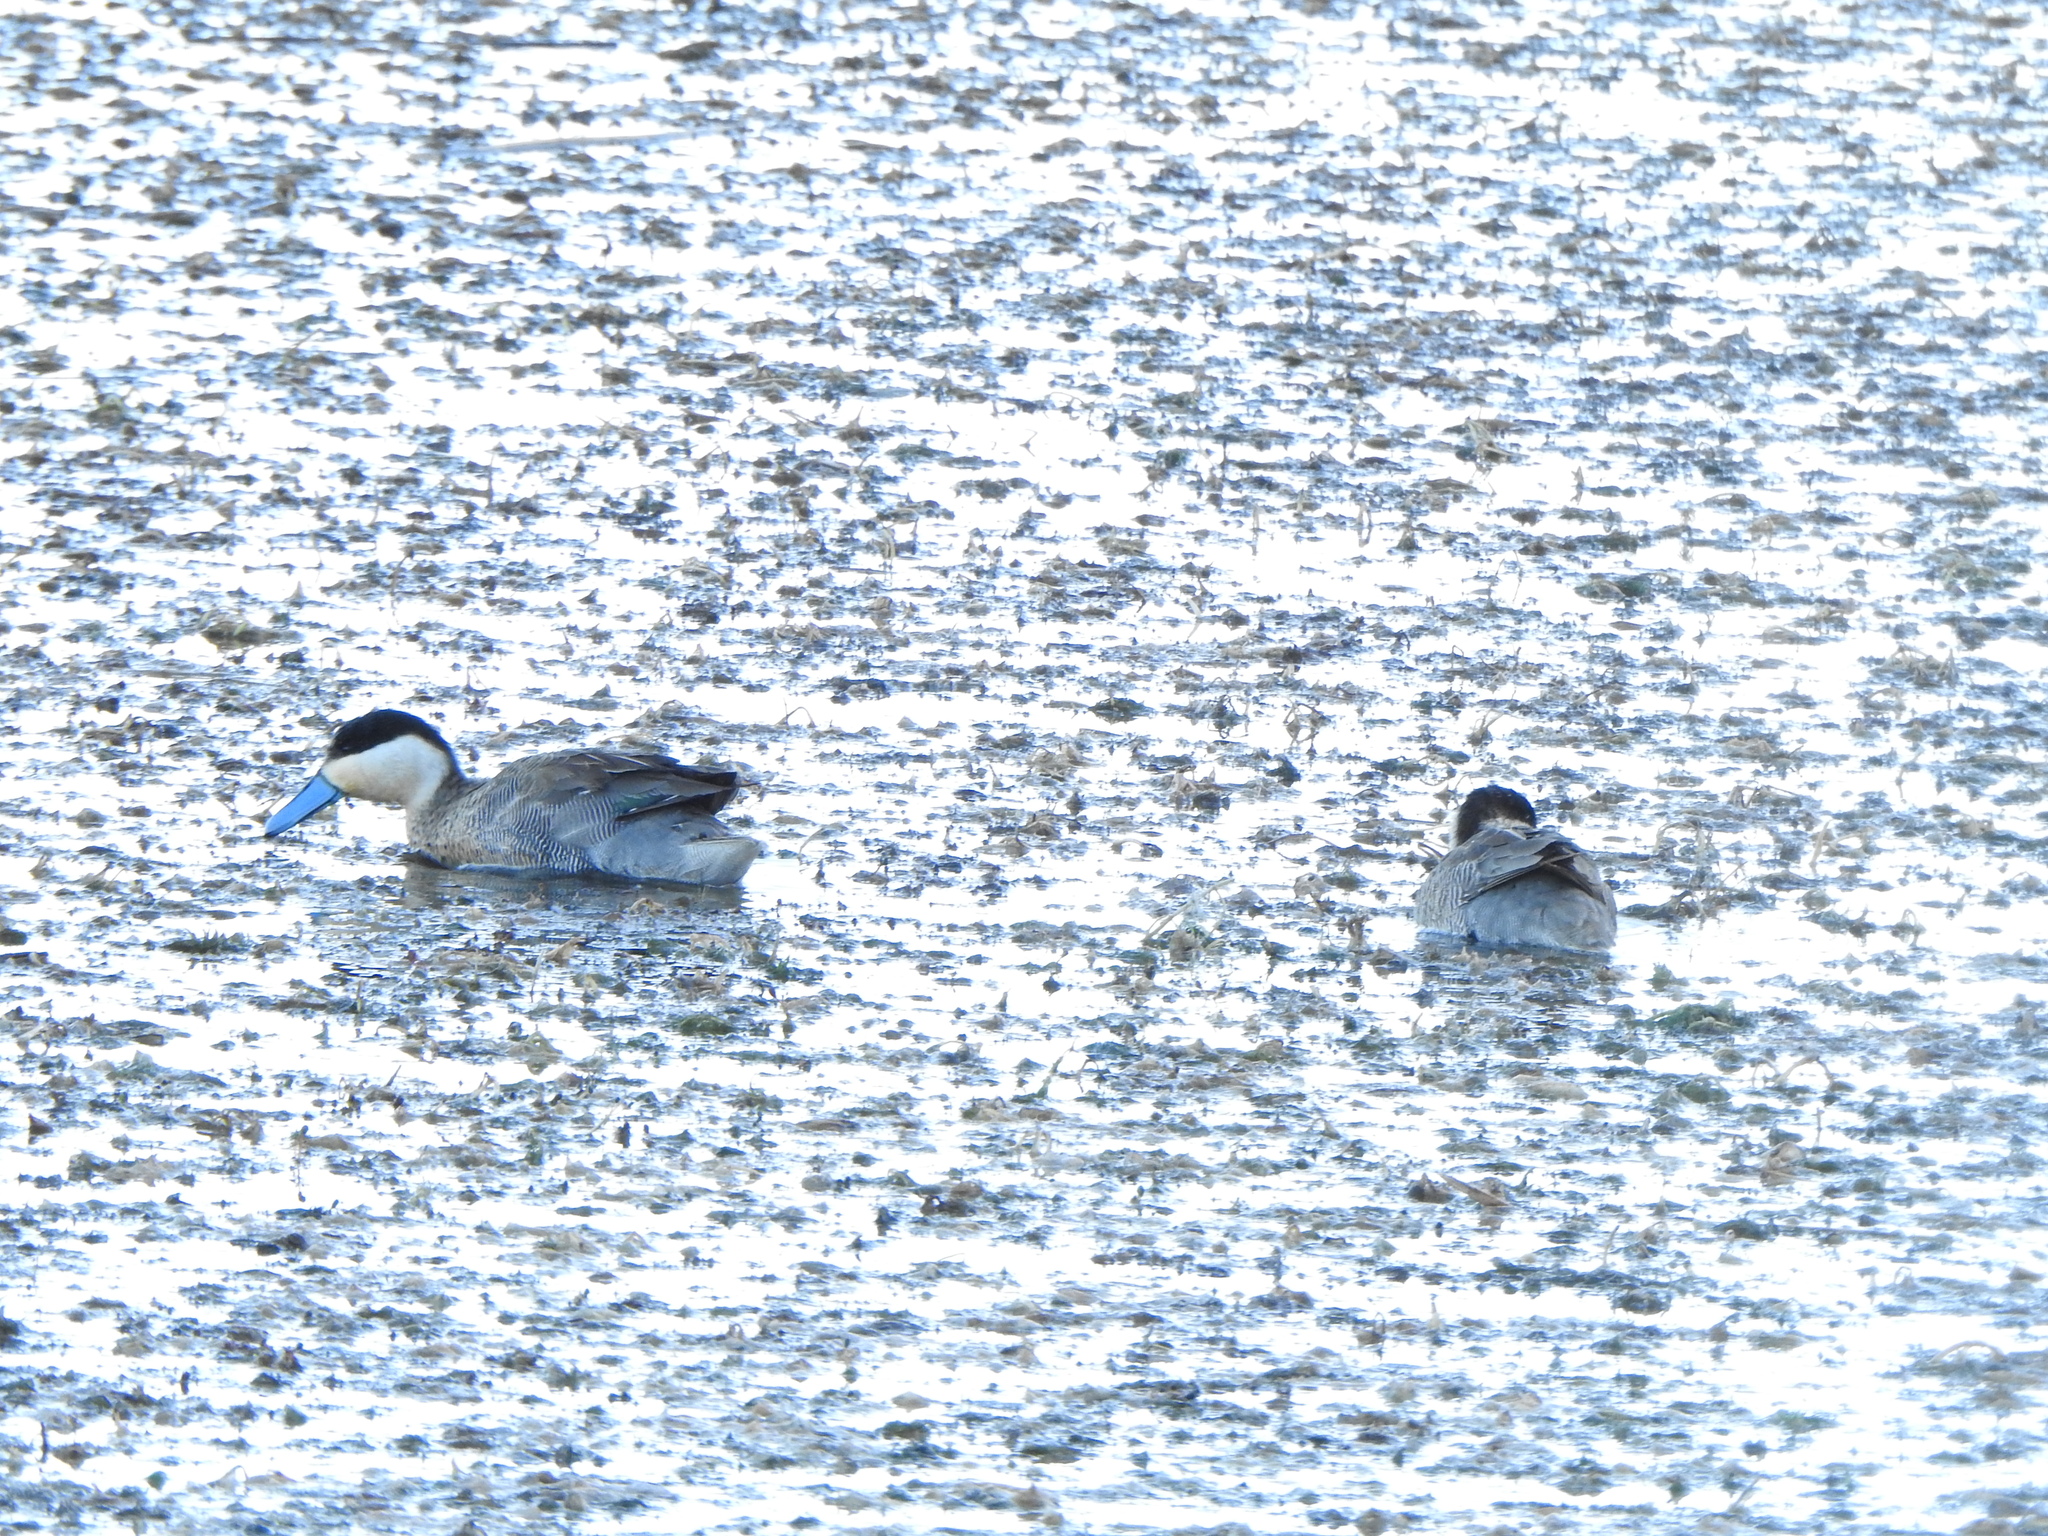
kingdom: Animalia
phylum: Chordata
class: Aves
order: Anseriformes
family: Anatidae
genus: Spatula
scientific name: Spatula puna
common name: Puna teal
